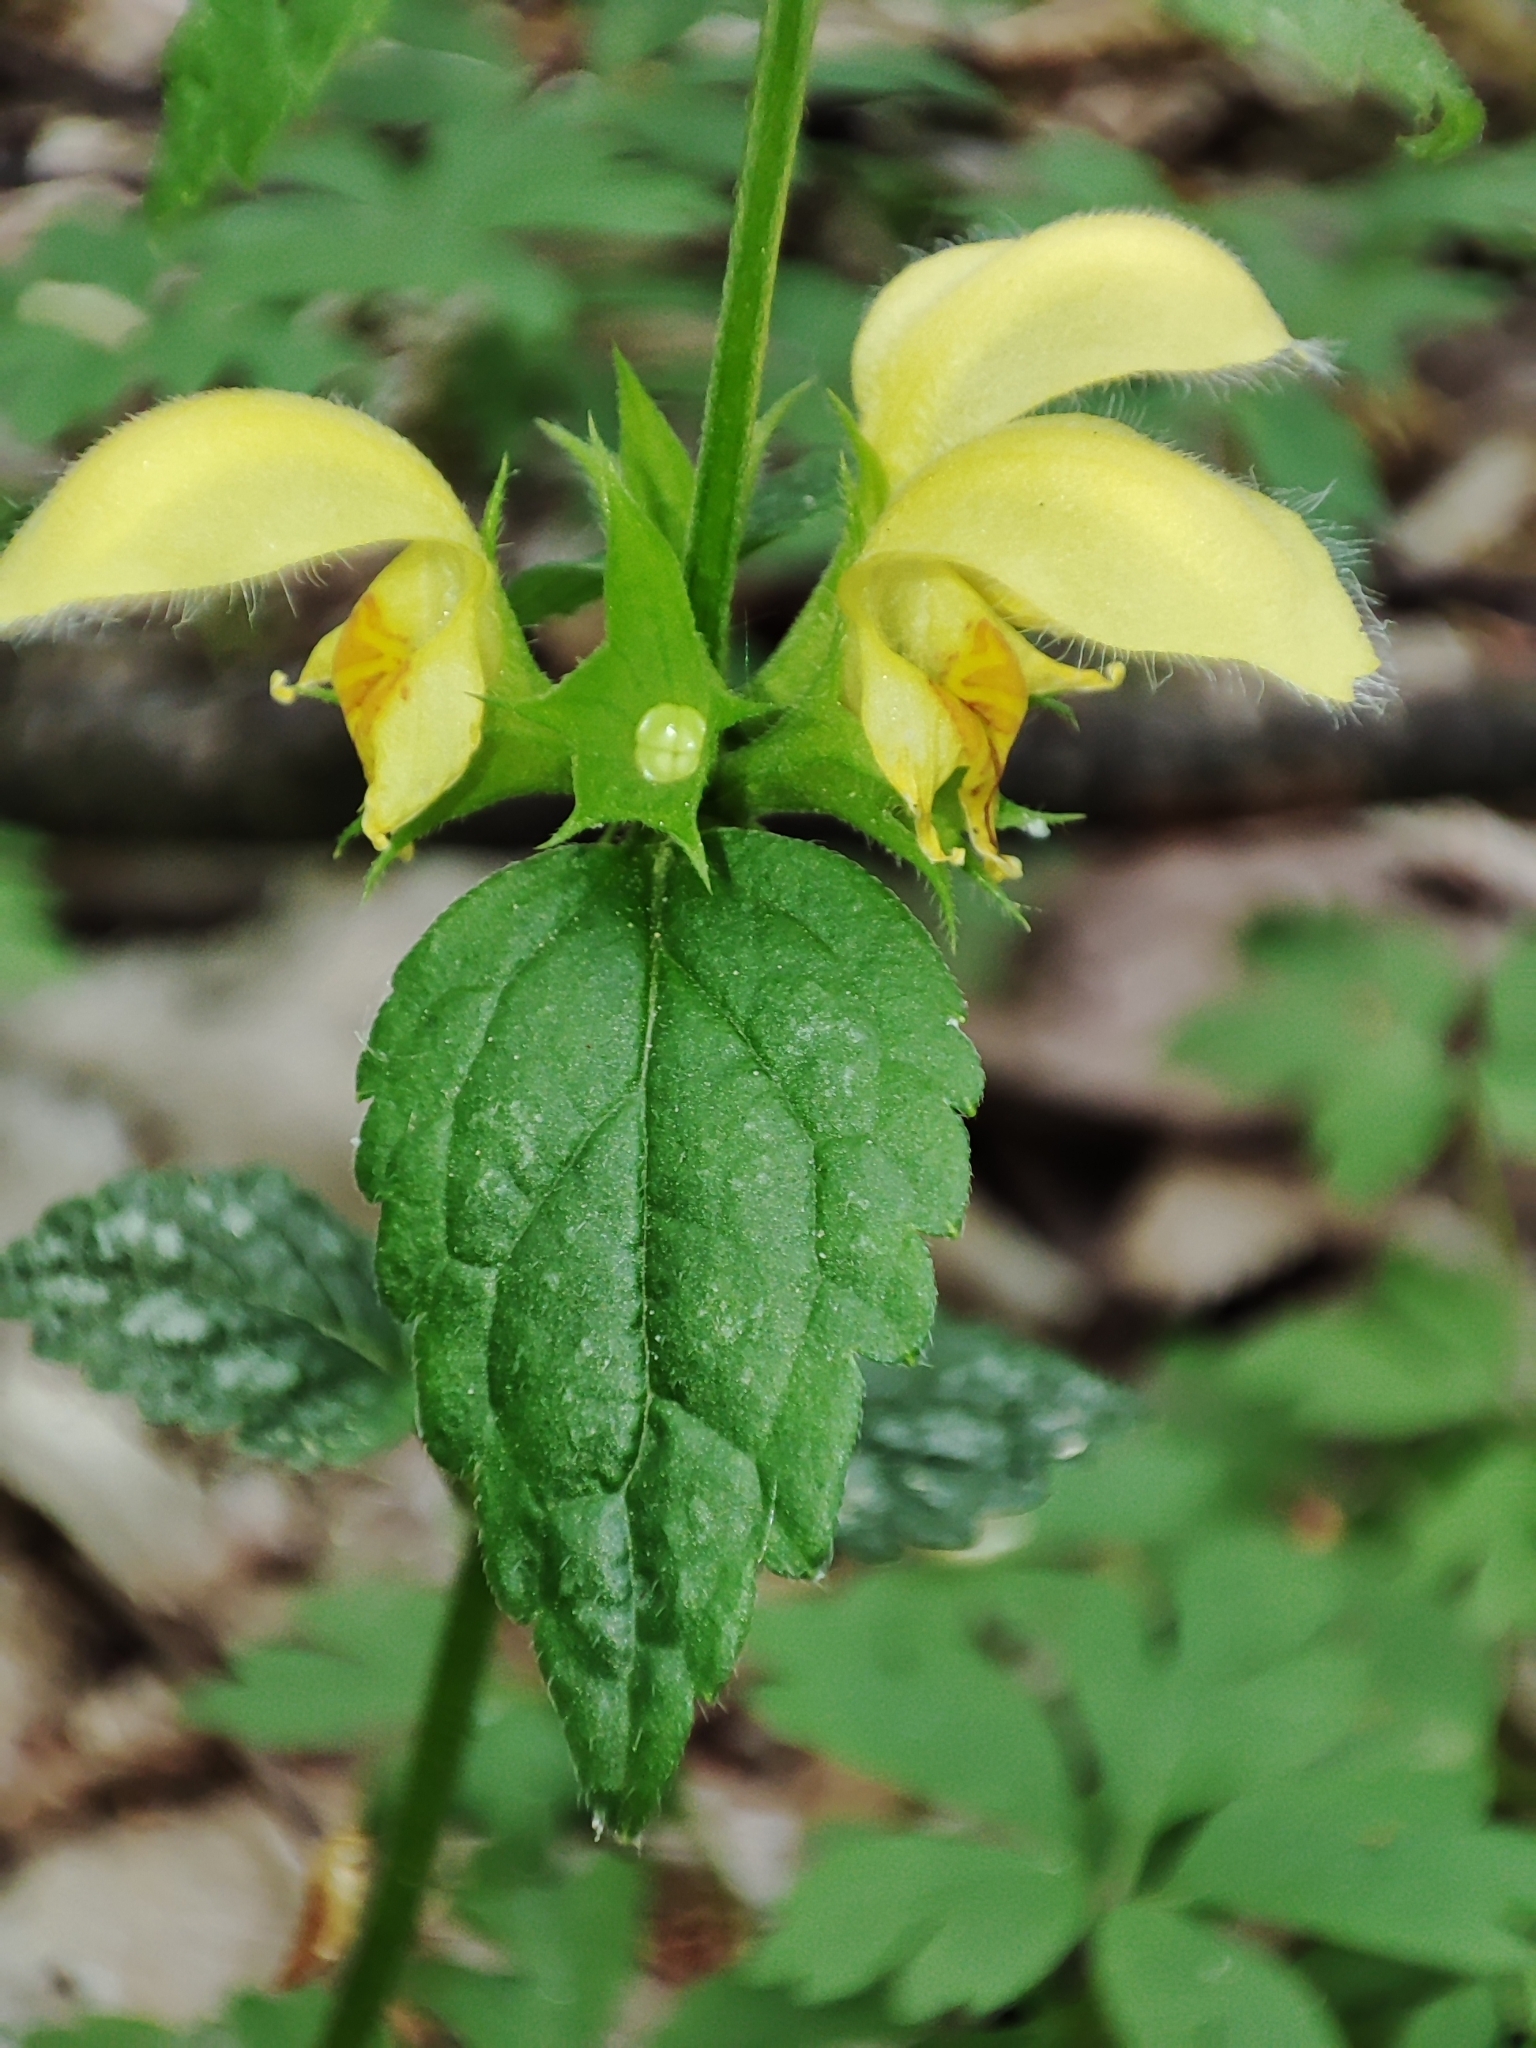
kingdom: Plantae
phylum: Tracheophyta
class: Magnoliopsida
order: Lamiales
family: Lamiaceae
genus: Lamium
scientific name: Lamium galeobdolon
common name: Yellow archangel
